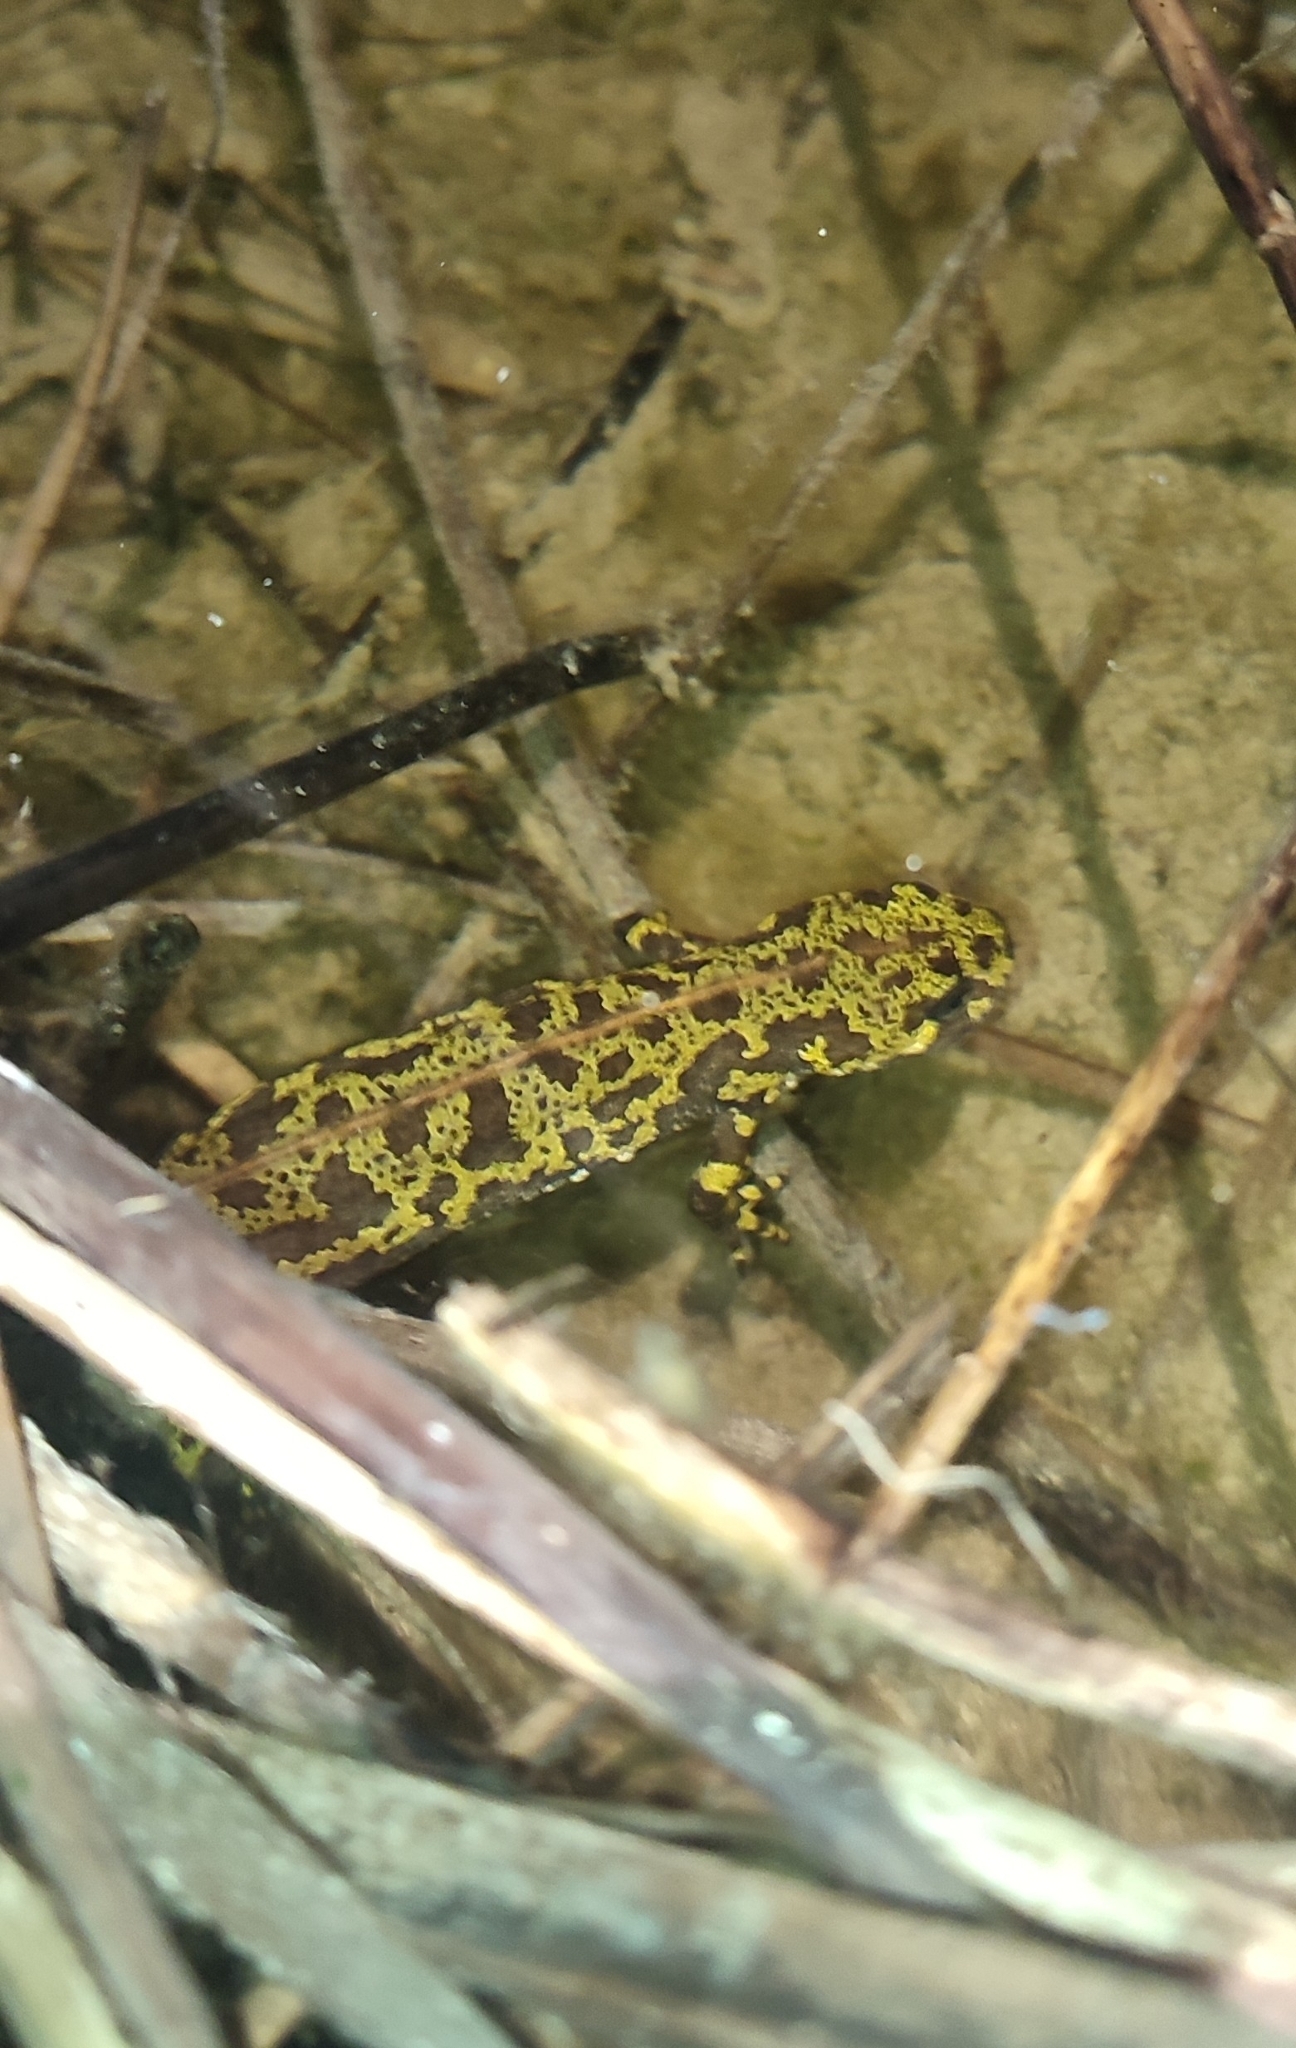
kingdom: Animalia
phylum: Chordata
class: Amphibia
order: Caudata
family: Salamandridae
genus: Triturus
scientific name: Triturus marmoratus
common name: Marbled newt
